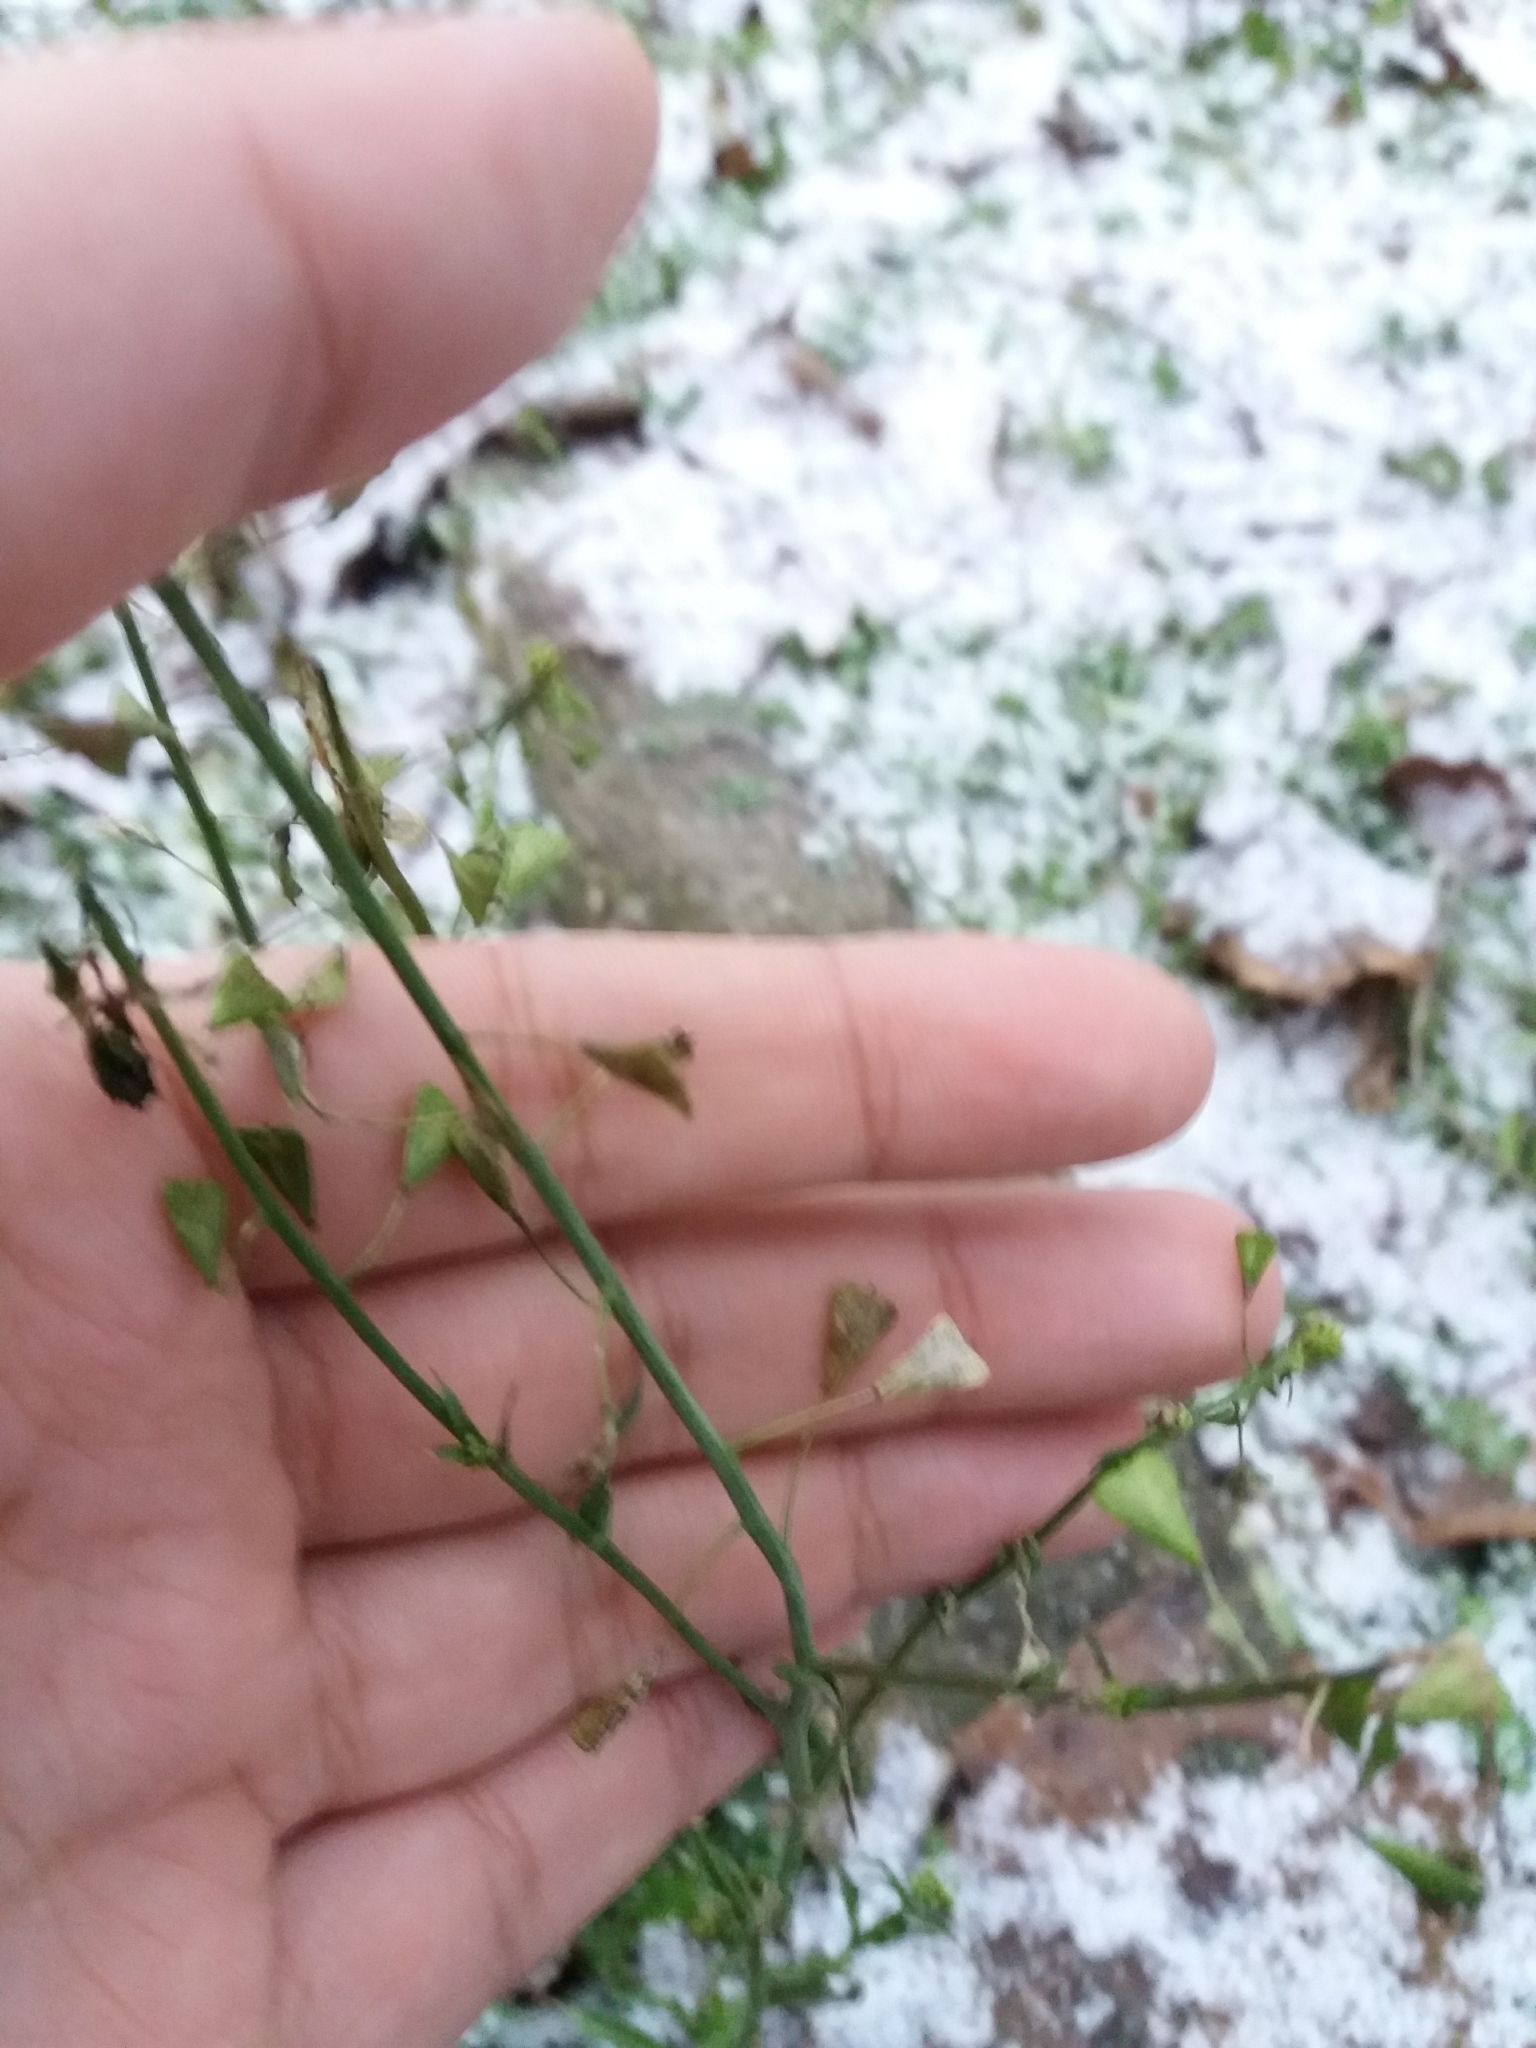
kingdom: Plantae
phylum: Tracheophyta
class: Magnoliopsida
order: Brassicales
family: Brassicaceae
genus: Capsella
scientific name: Capsella bursa-pastoris
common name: Shepherd's purse
